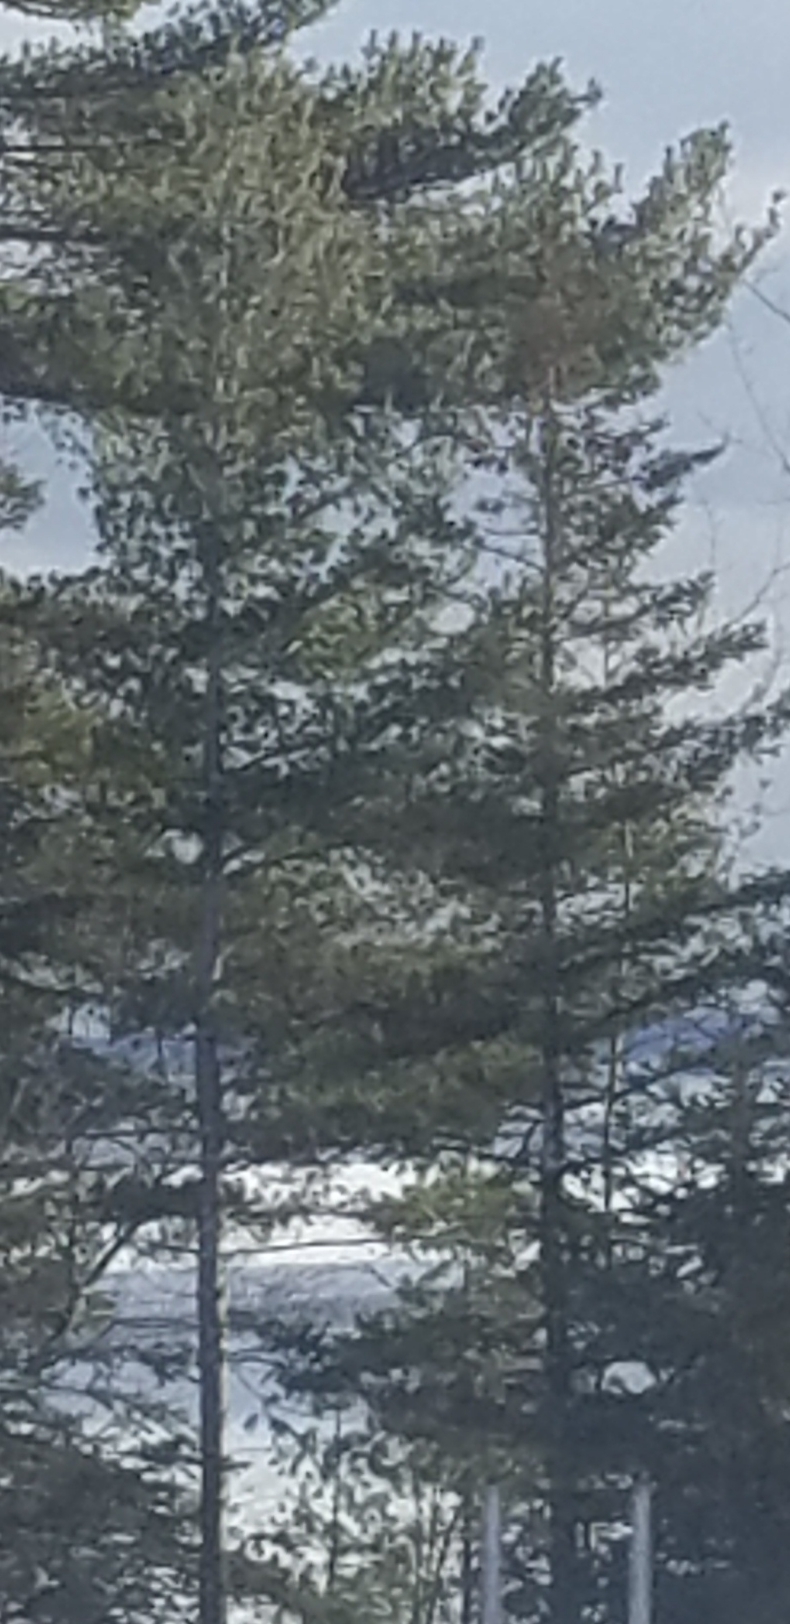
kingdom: Plantae
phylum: Tracheophyta
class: Pinopsida
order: Pinales
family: Pinaceae
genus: Pinus
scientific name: Pinus strobus
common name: Weymouth pine
